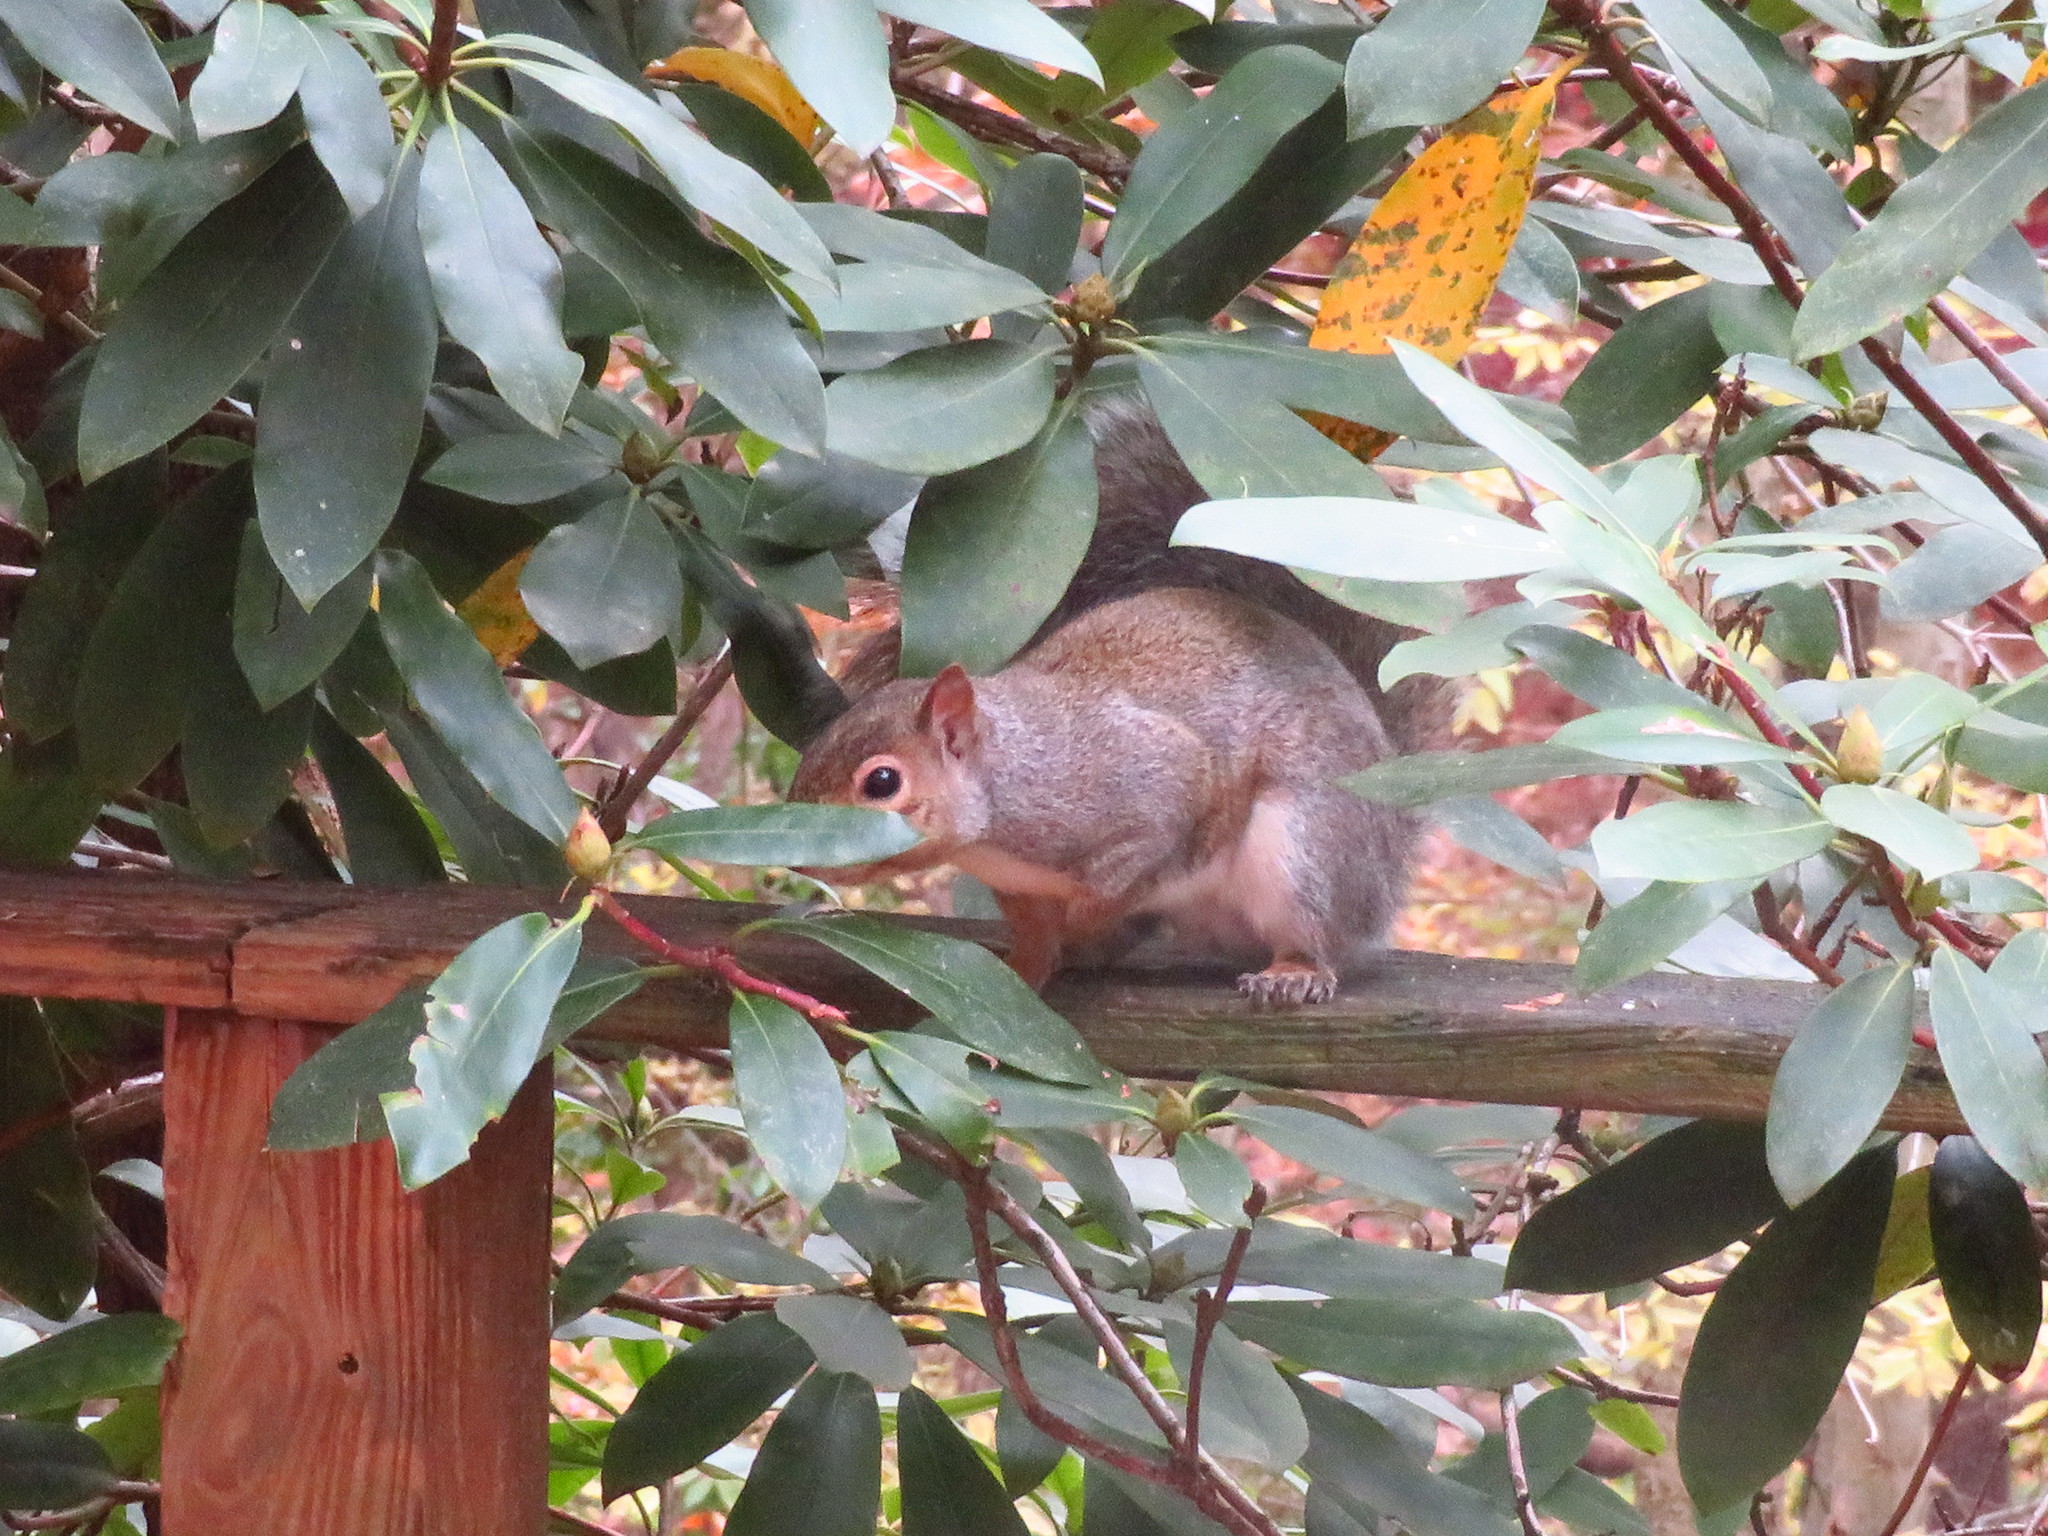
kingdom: Animalia
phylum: Chordata
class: Mammalia
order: Rodentia
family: Sciuridae
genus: Sciurus
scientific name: Sciurus carolinensis
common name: Eastern gray squirrel
